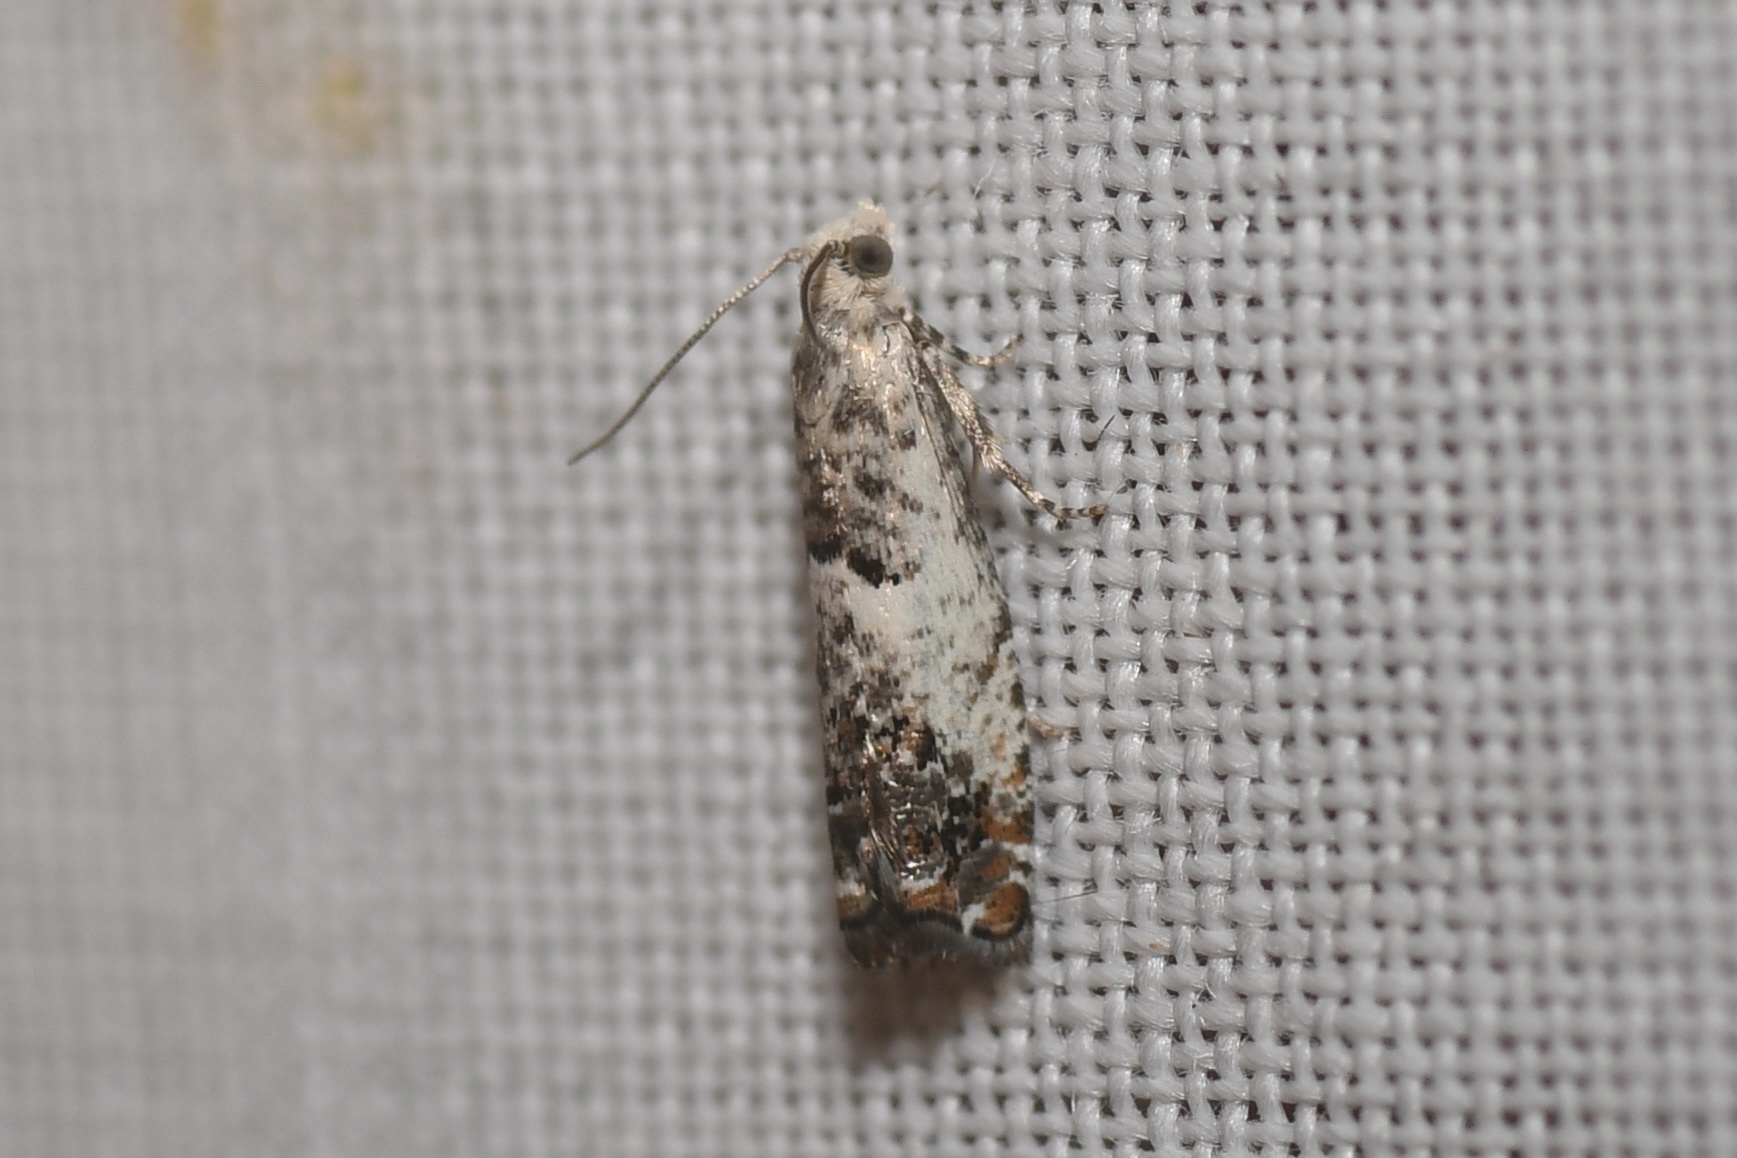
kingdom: Animalia
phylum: Arthropoda
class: Insecta
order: Lepidoptera
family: Tortricidae
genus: Epinotia
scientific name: Epinotia rectiplicana
